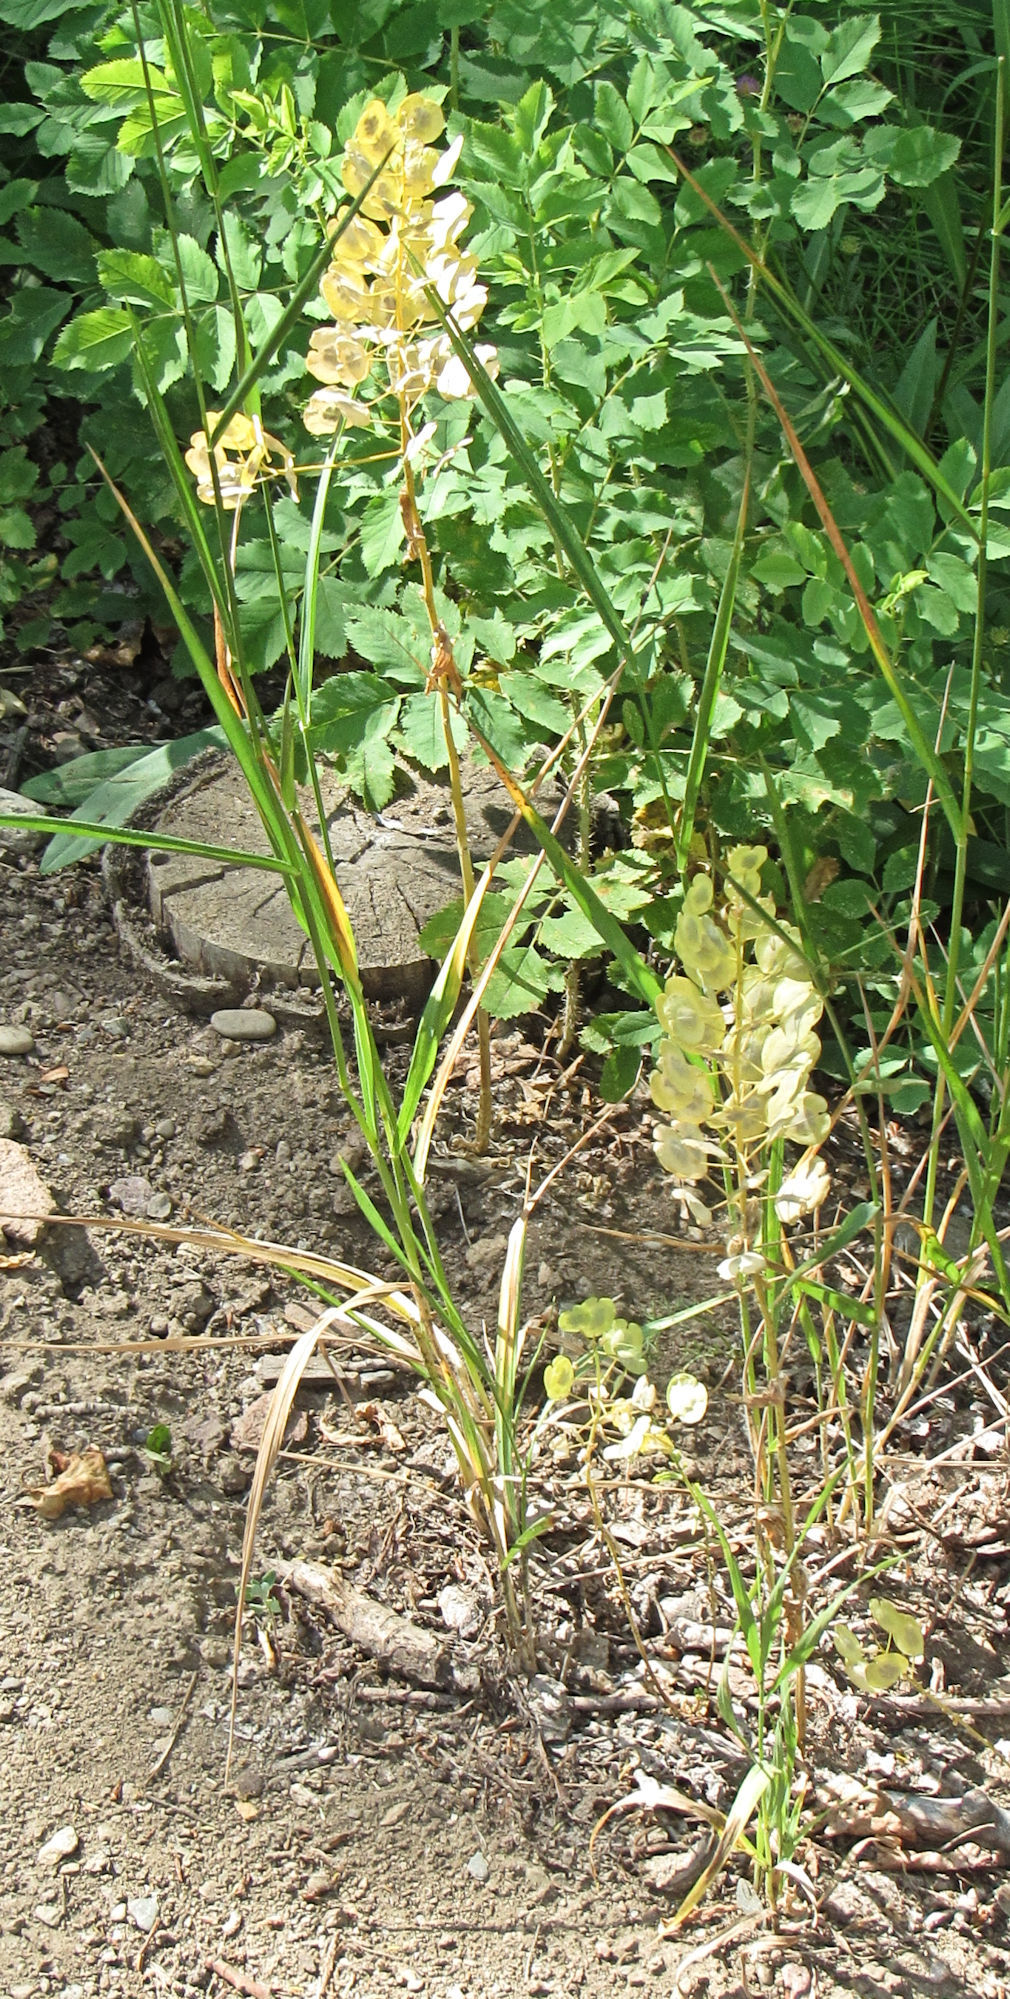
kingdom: Plantae
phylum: Tracheophyta
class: Magnoliopsida
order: Brassicales
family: Brassicaceae
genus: Thlaspi
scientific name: Thlaspi arvense
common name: Field pennycress
